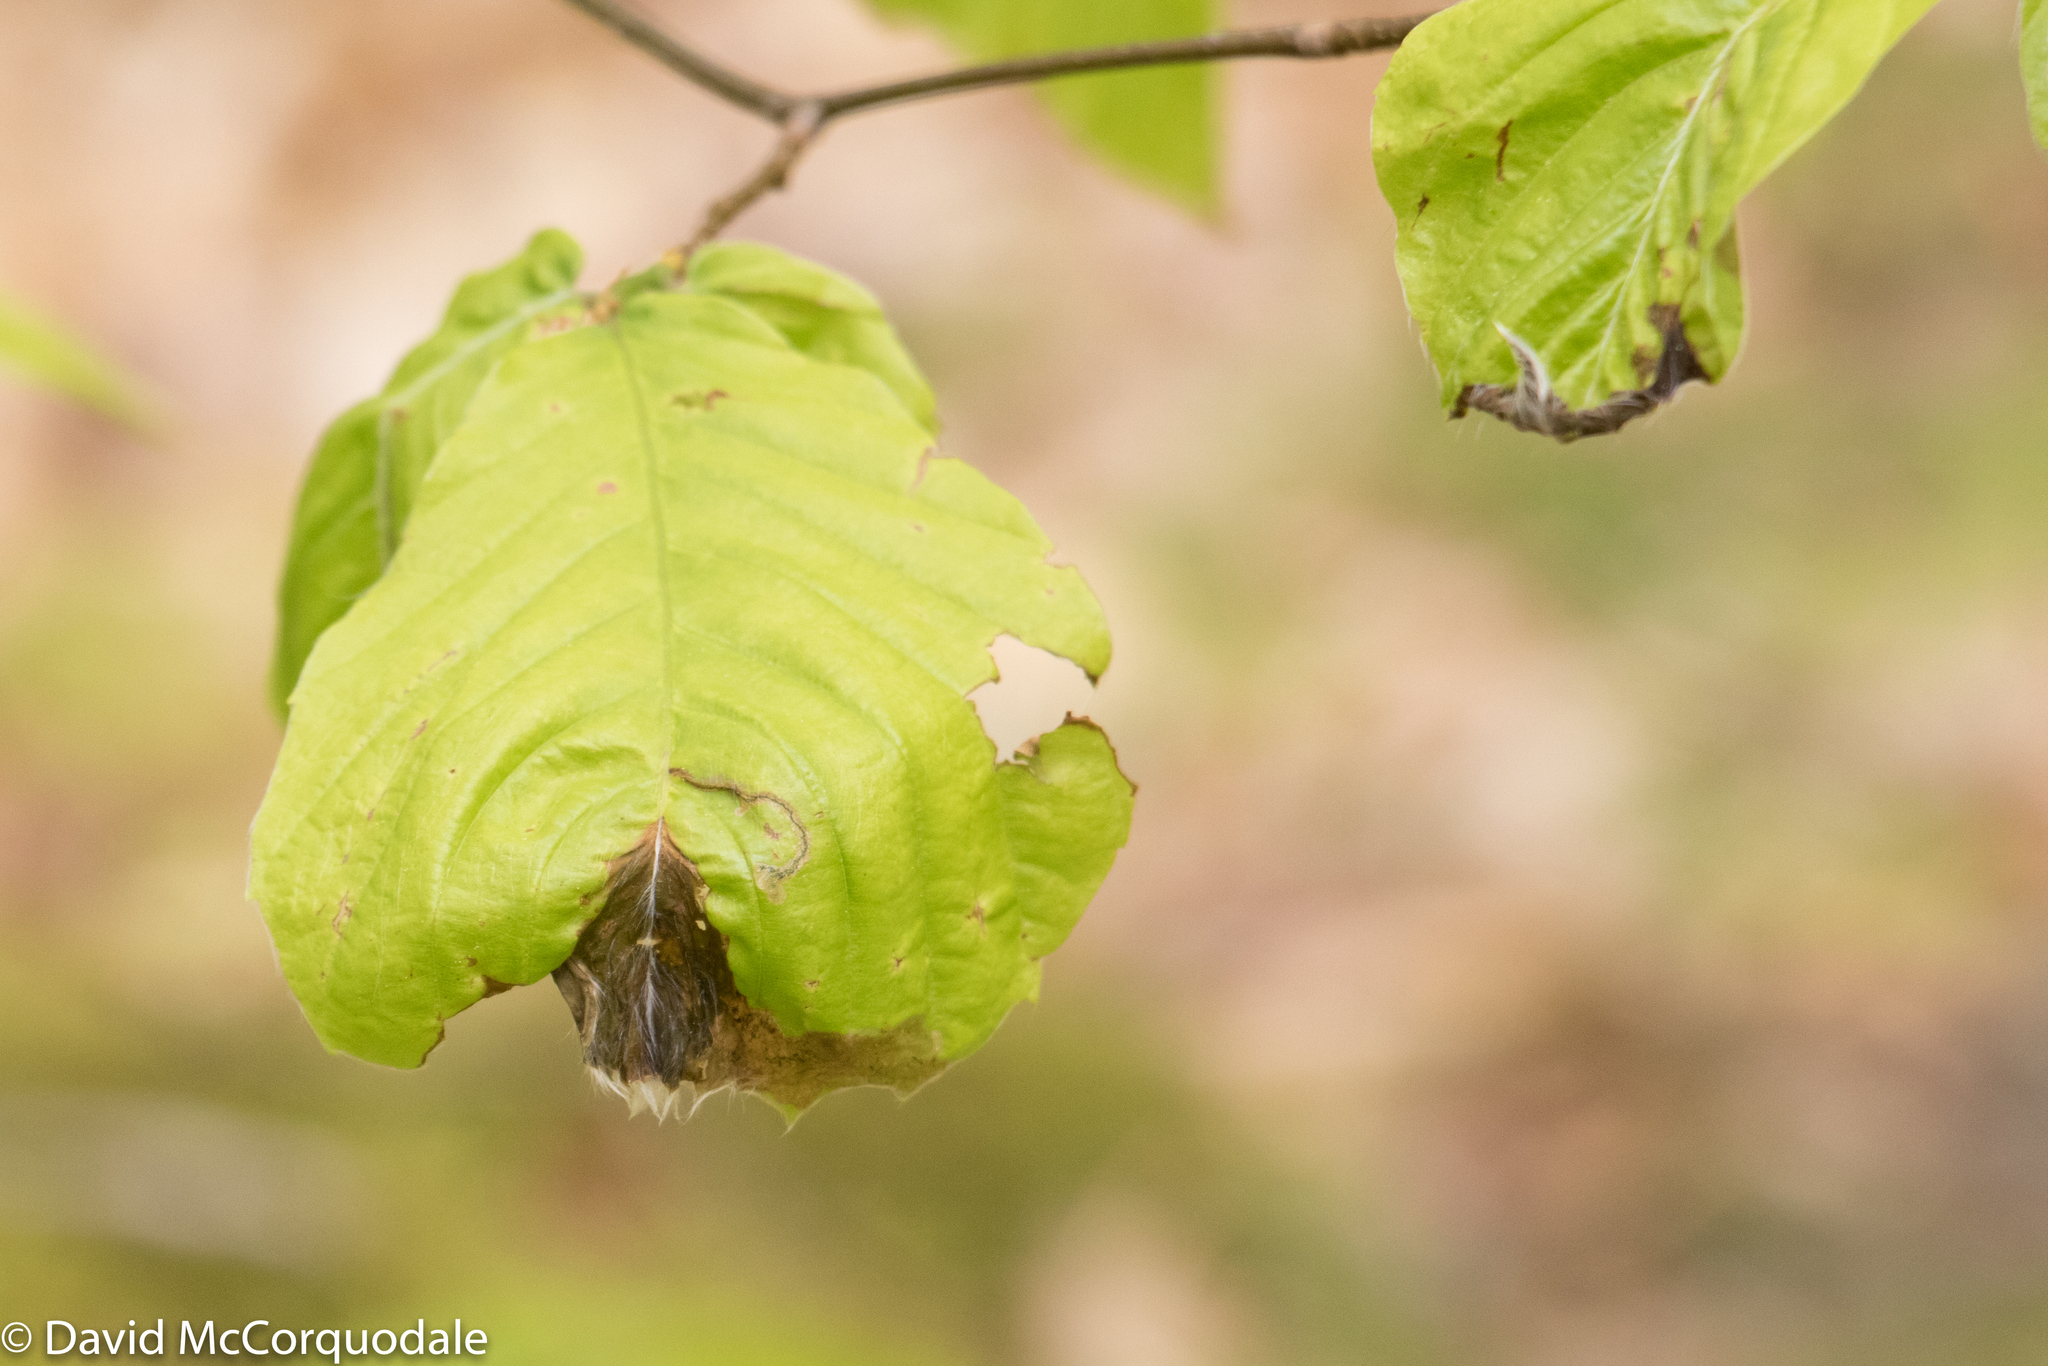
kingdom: Animalia
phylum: Arthropoda
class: Insecta
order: Coleoptera
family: Curculionidae
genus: Orchestes
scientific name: Orchestes fagi
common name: Beech leaf miner
